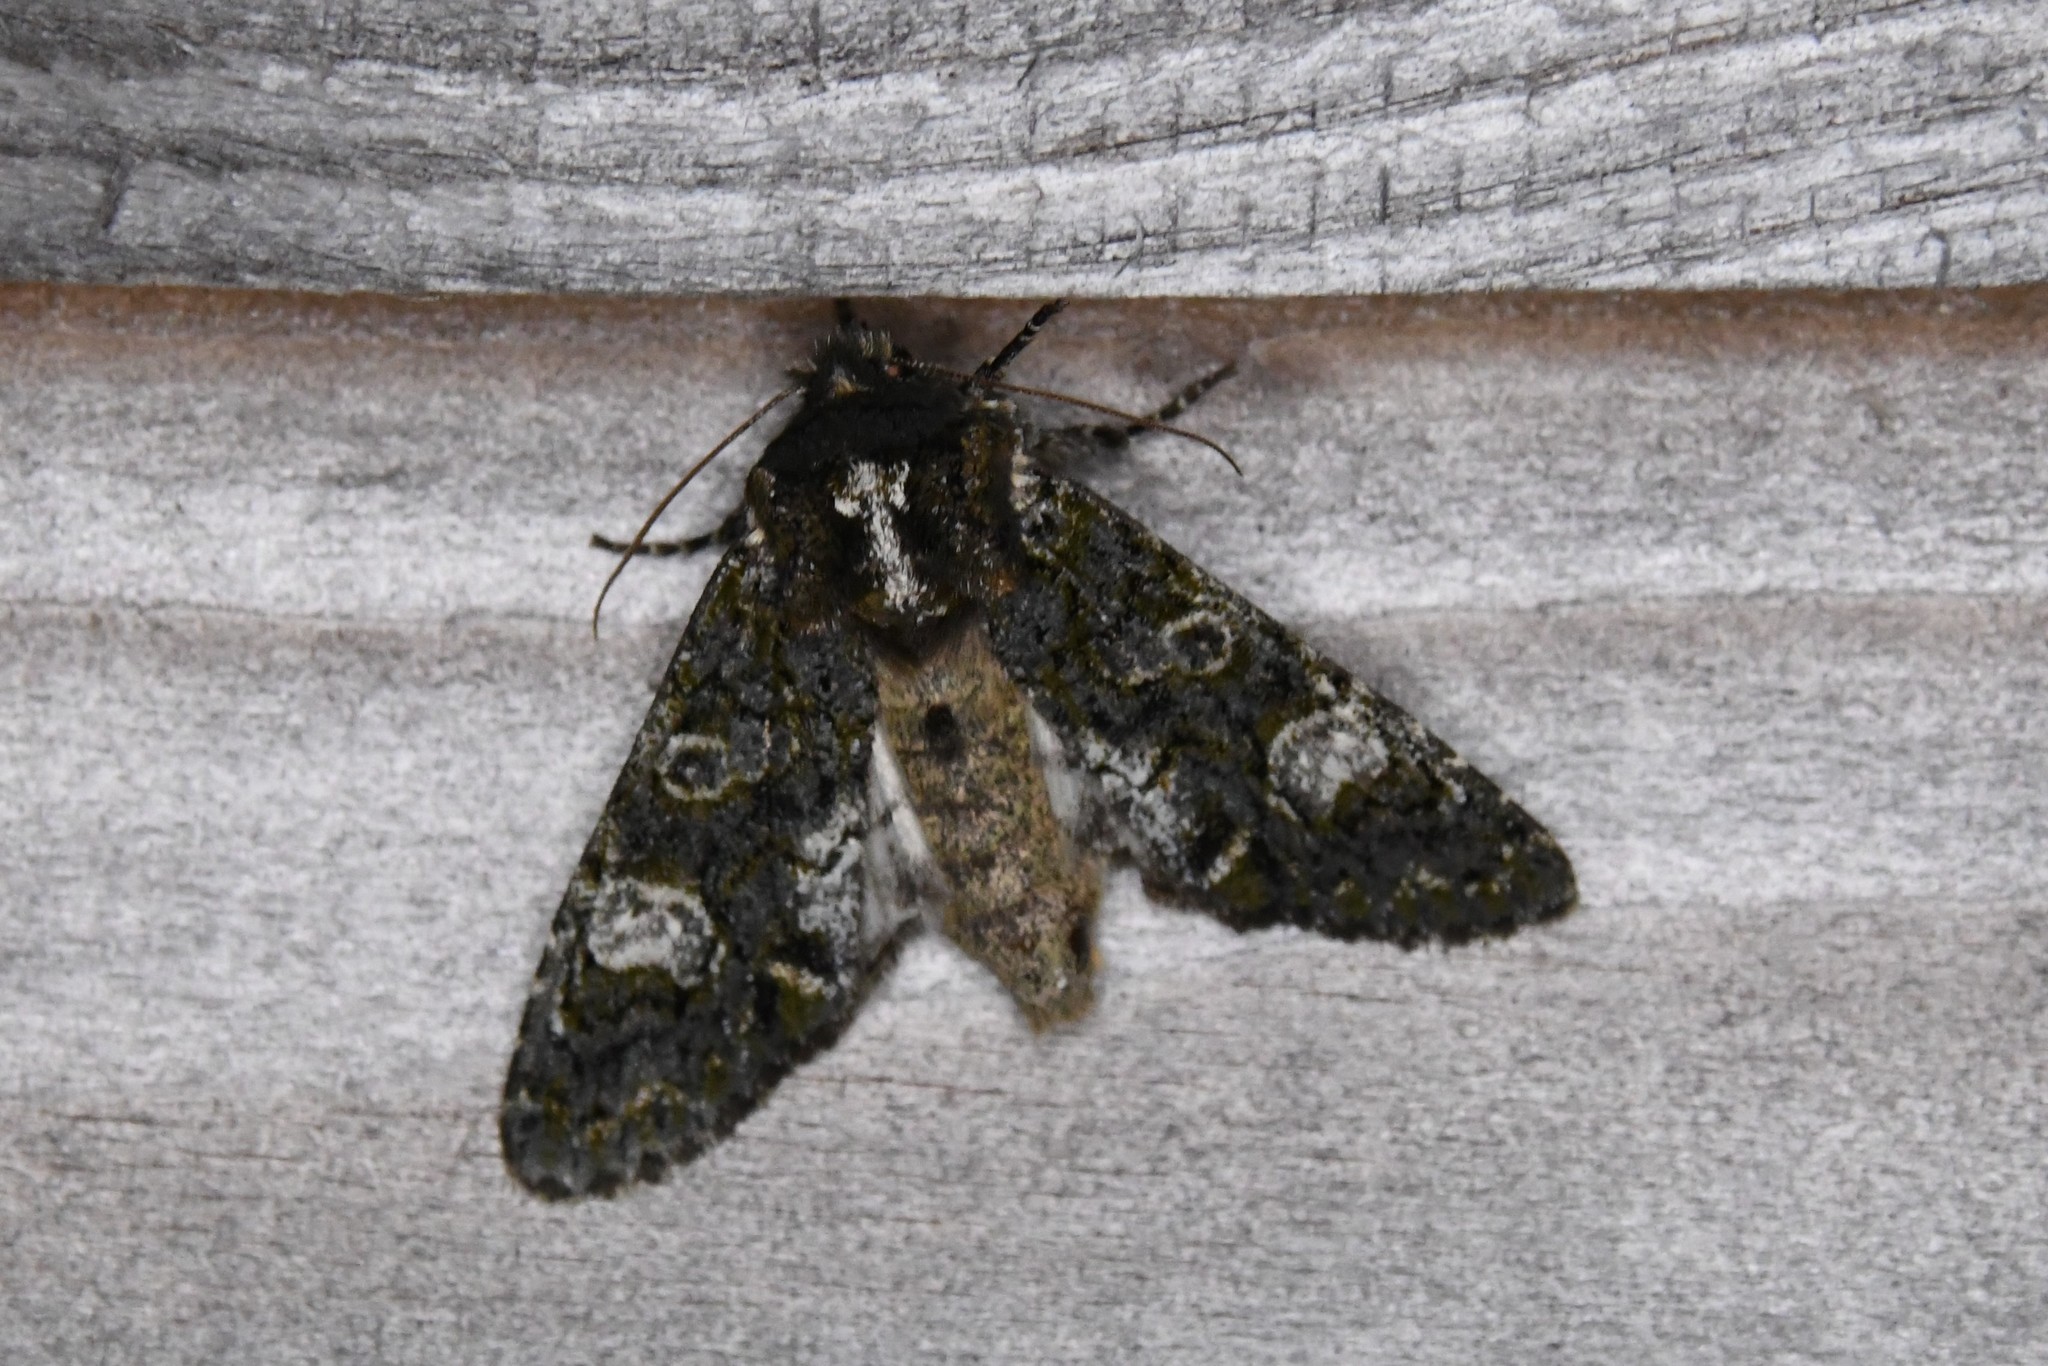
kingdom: Animalia
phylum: Arthropoda
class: Insecta
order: Lepidoptera
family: Noctuidae
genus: Psaphida
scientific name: Psaphida grotei
